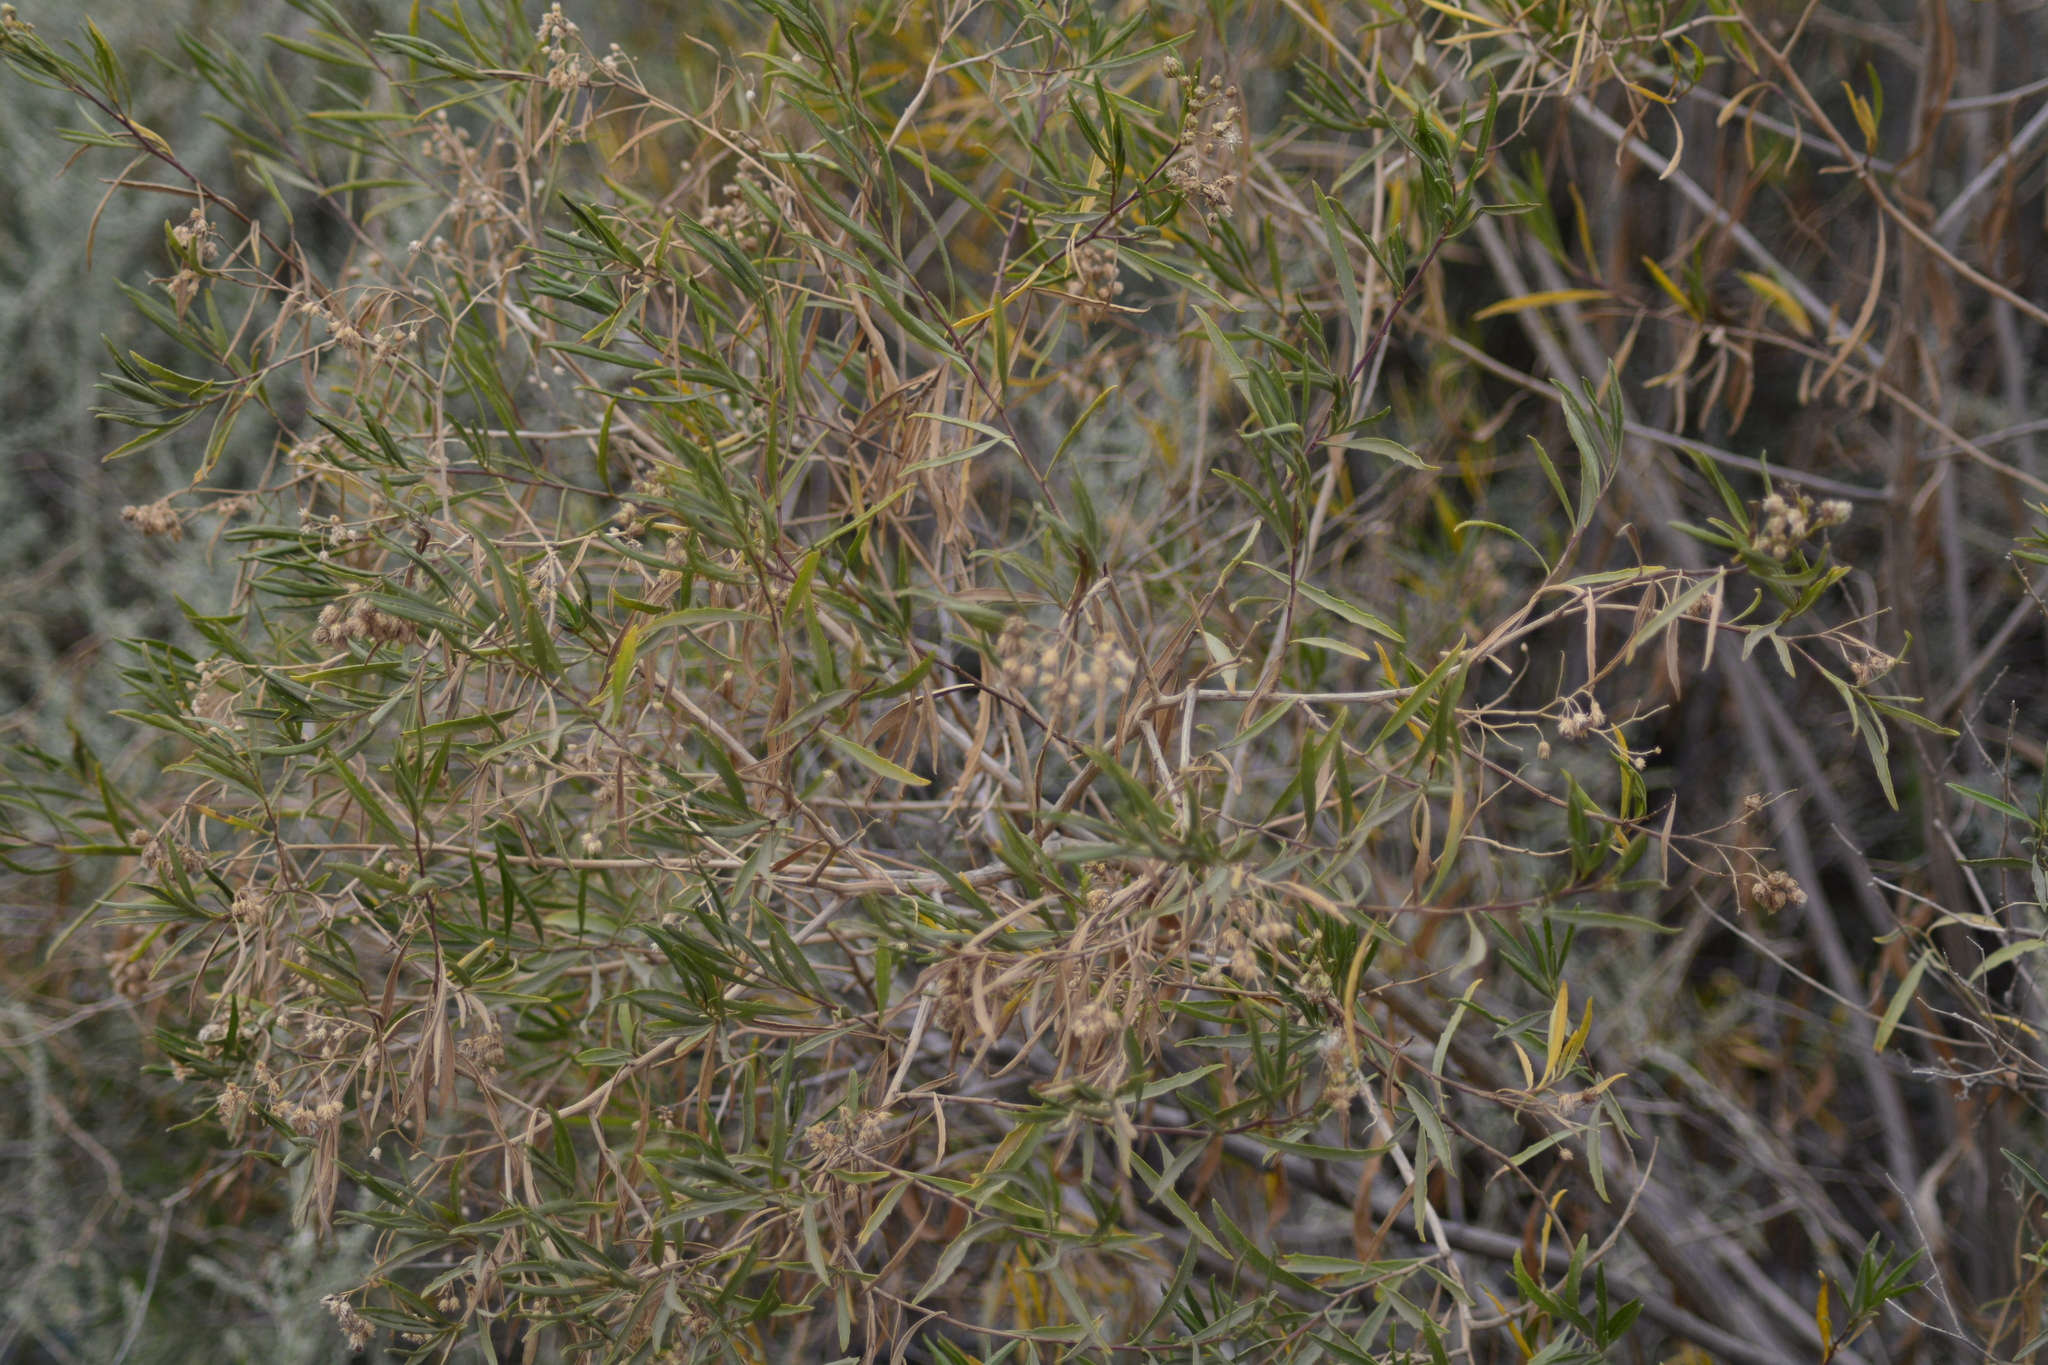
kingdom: Plantae
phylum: Tracheophyta
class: Magnoliopsida
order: Asterales
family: Asteraceae
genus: Baccharis
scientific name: Baccharis salicifolia
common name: Sticky baccharis
